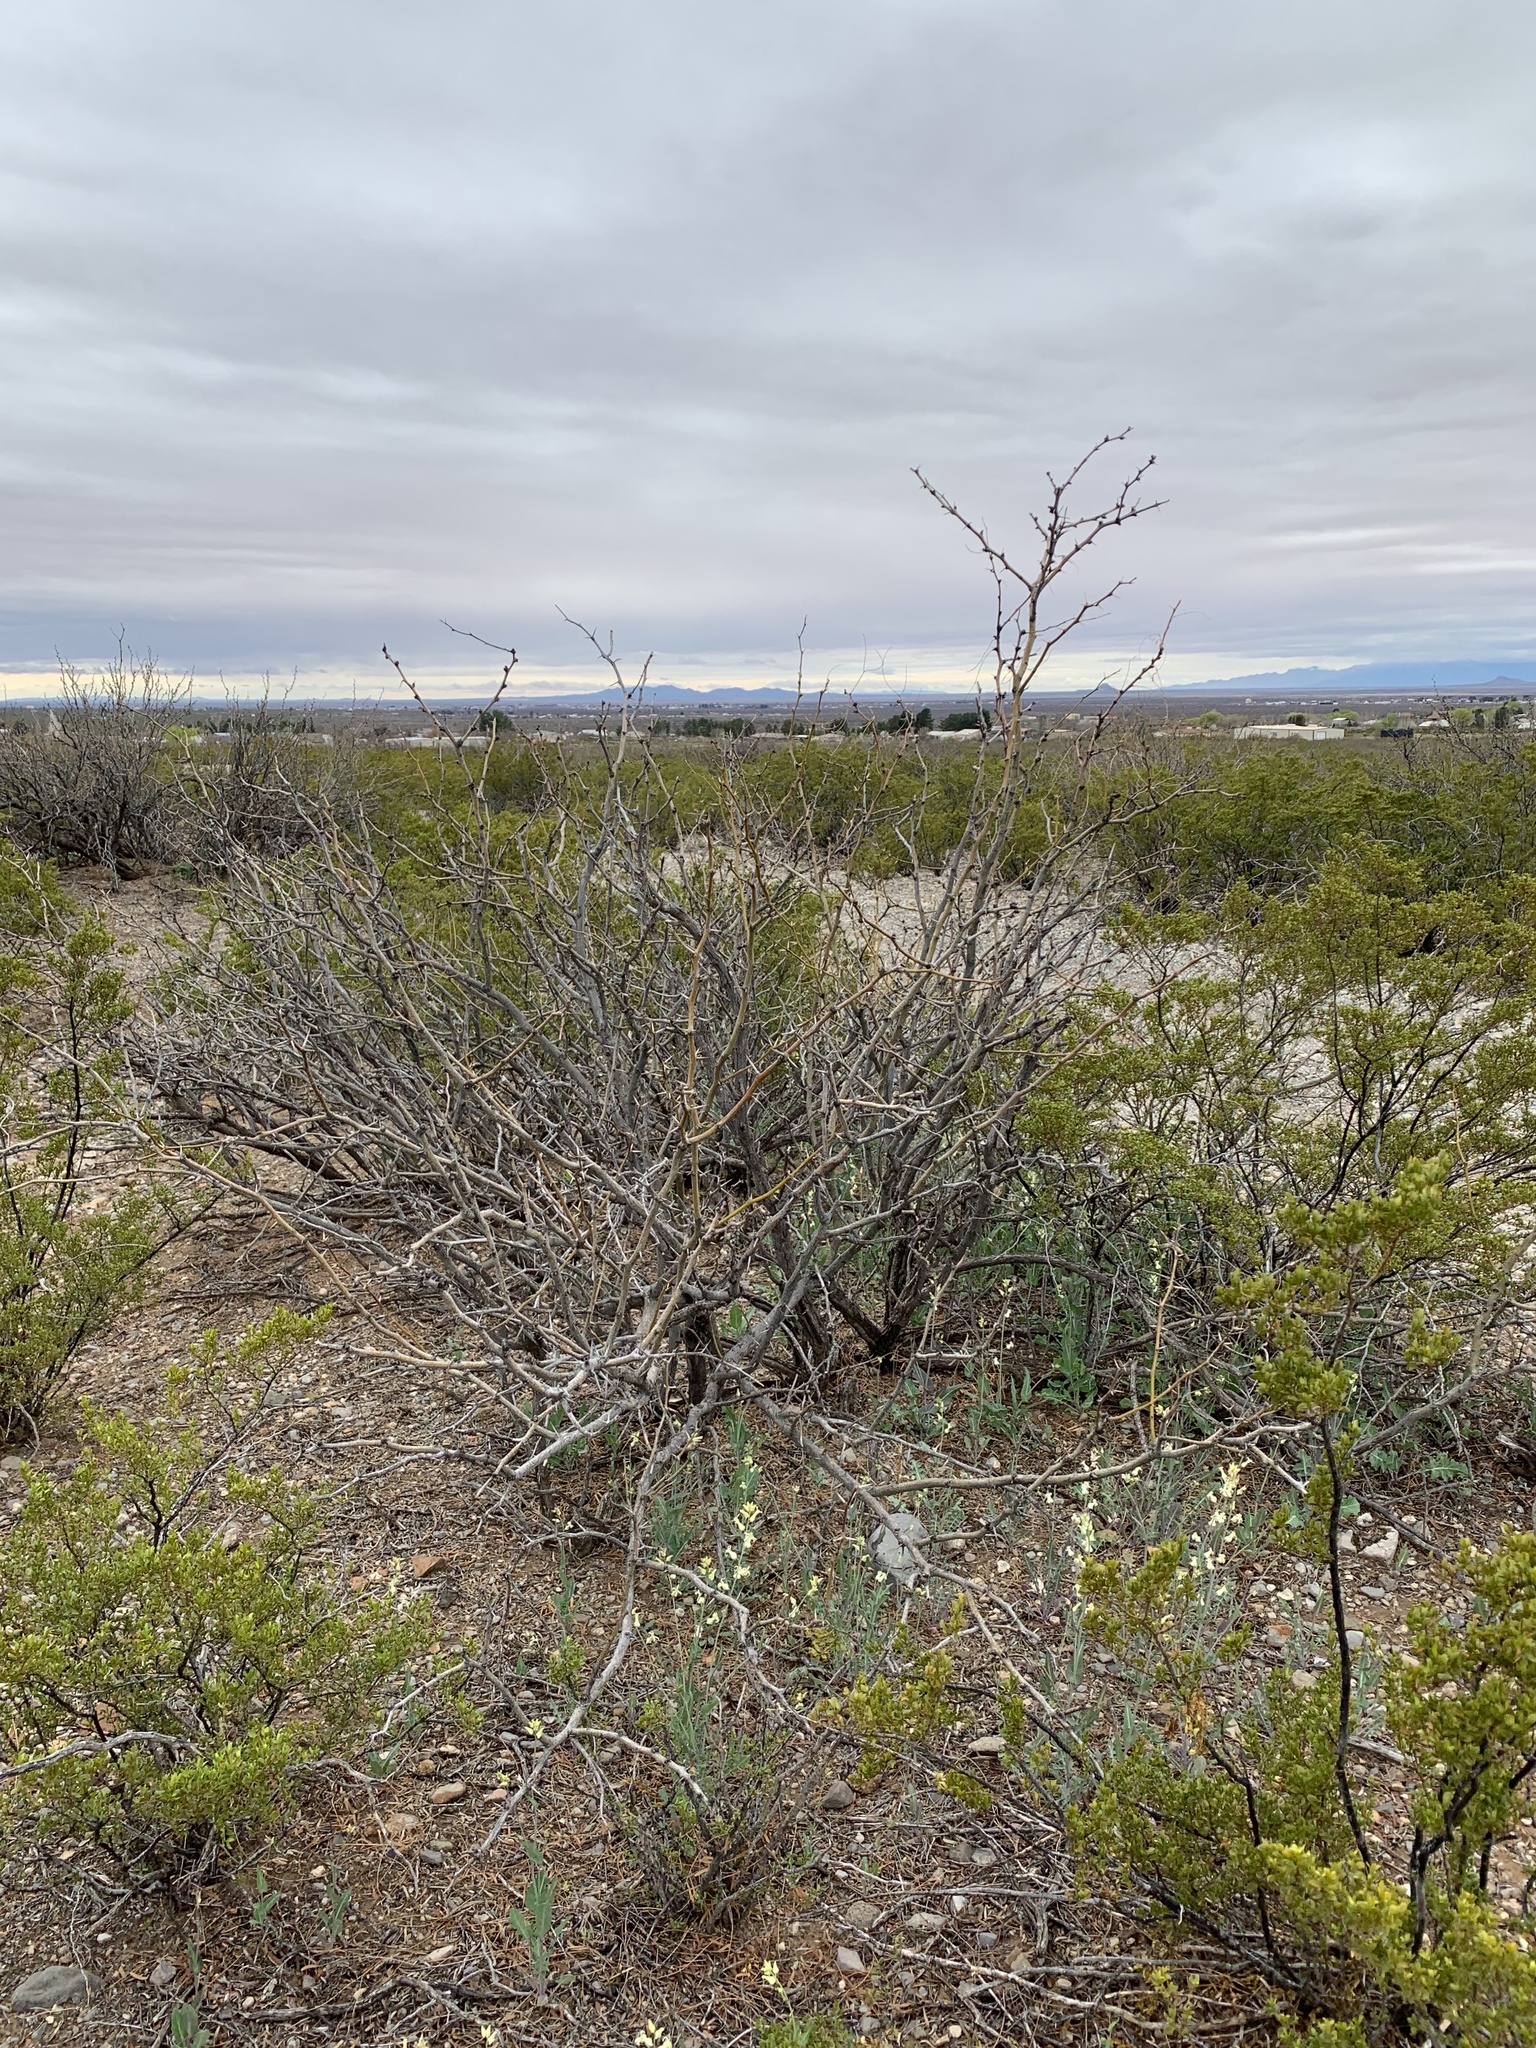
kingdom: Plantae
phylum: Tracheophyta
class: Magnoliopsida
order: Fabales
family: Fabaceae
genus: Prosopis
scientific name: Prosopis glandulosa
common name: Honey mesquite
